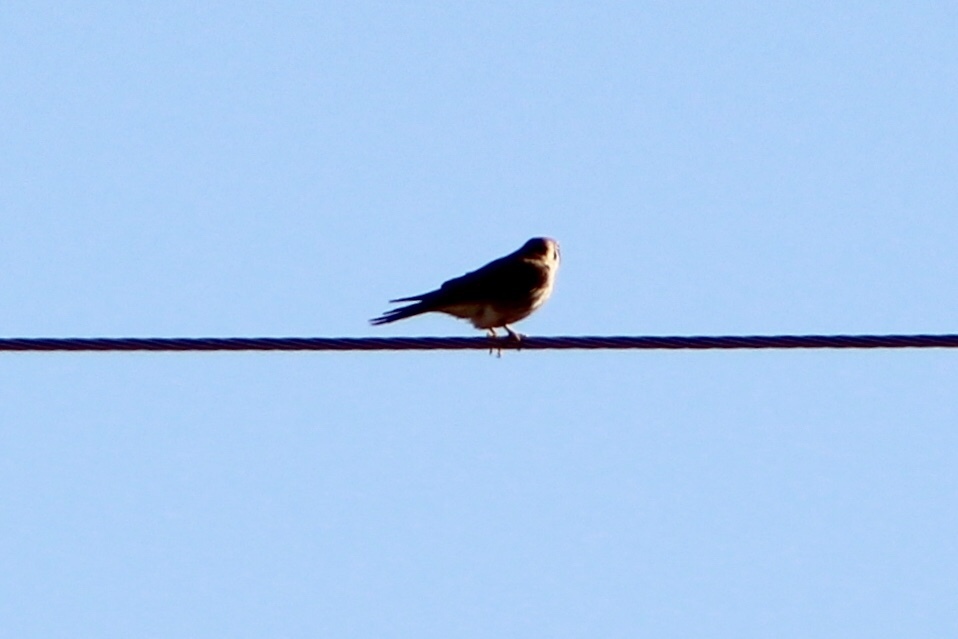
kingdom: Animalia
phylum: Chordata
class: Aves
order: Falconiformes
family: Falconidae
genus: Falco
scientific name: Falco sparverius
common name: American kestrel
